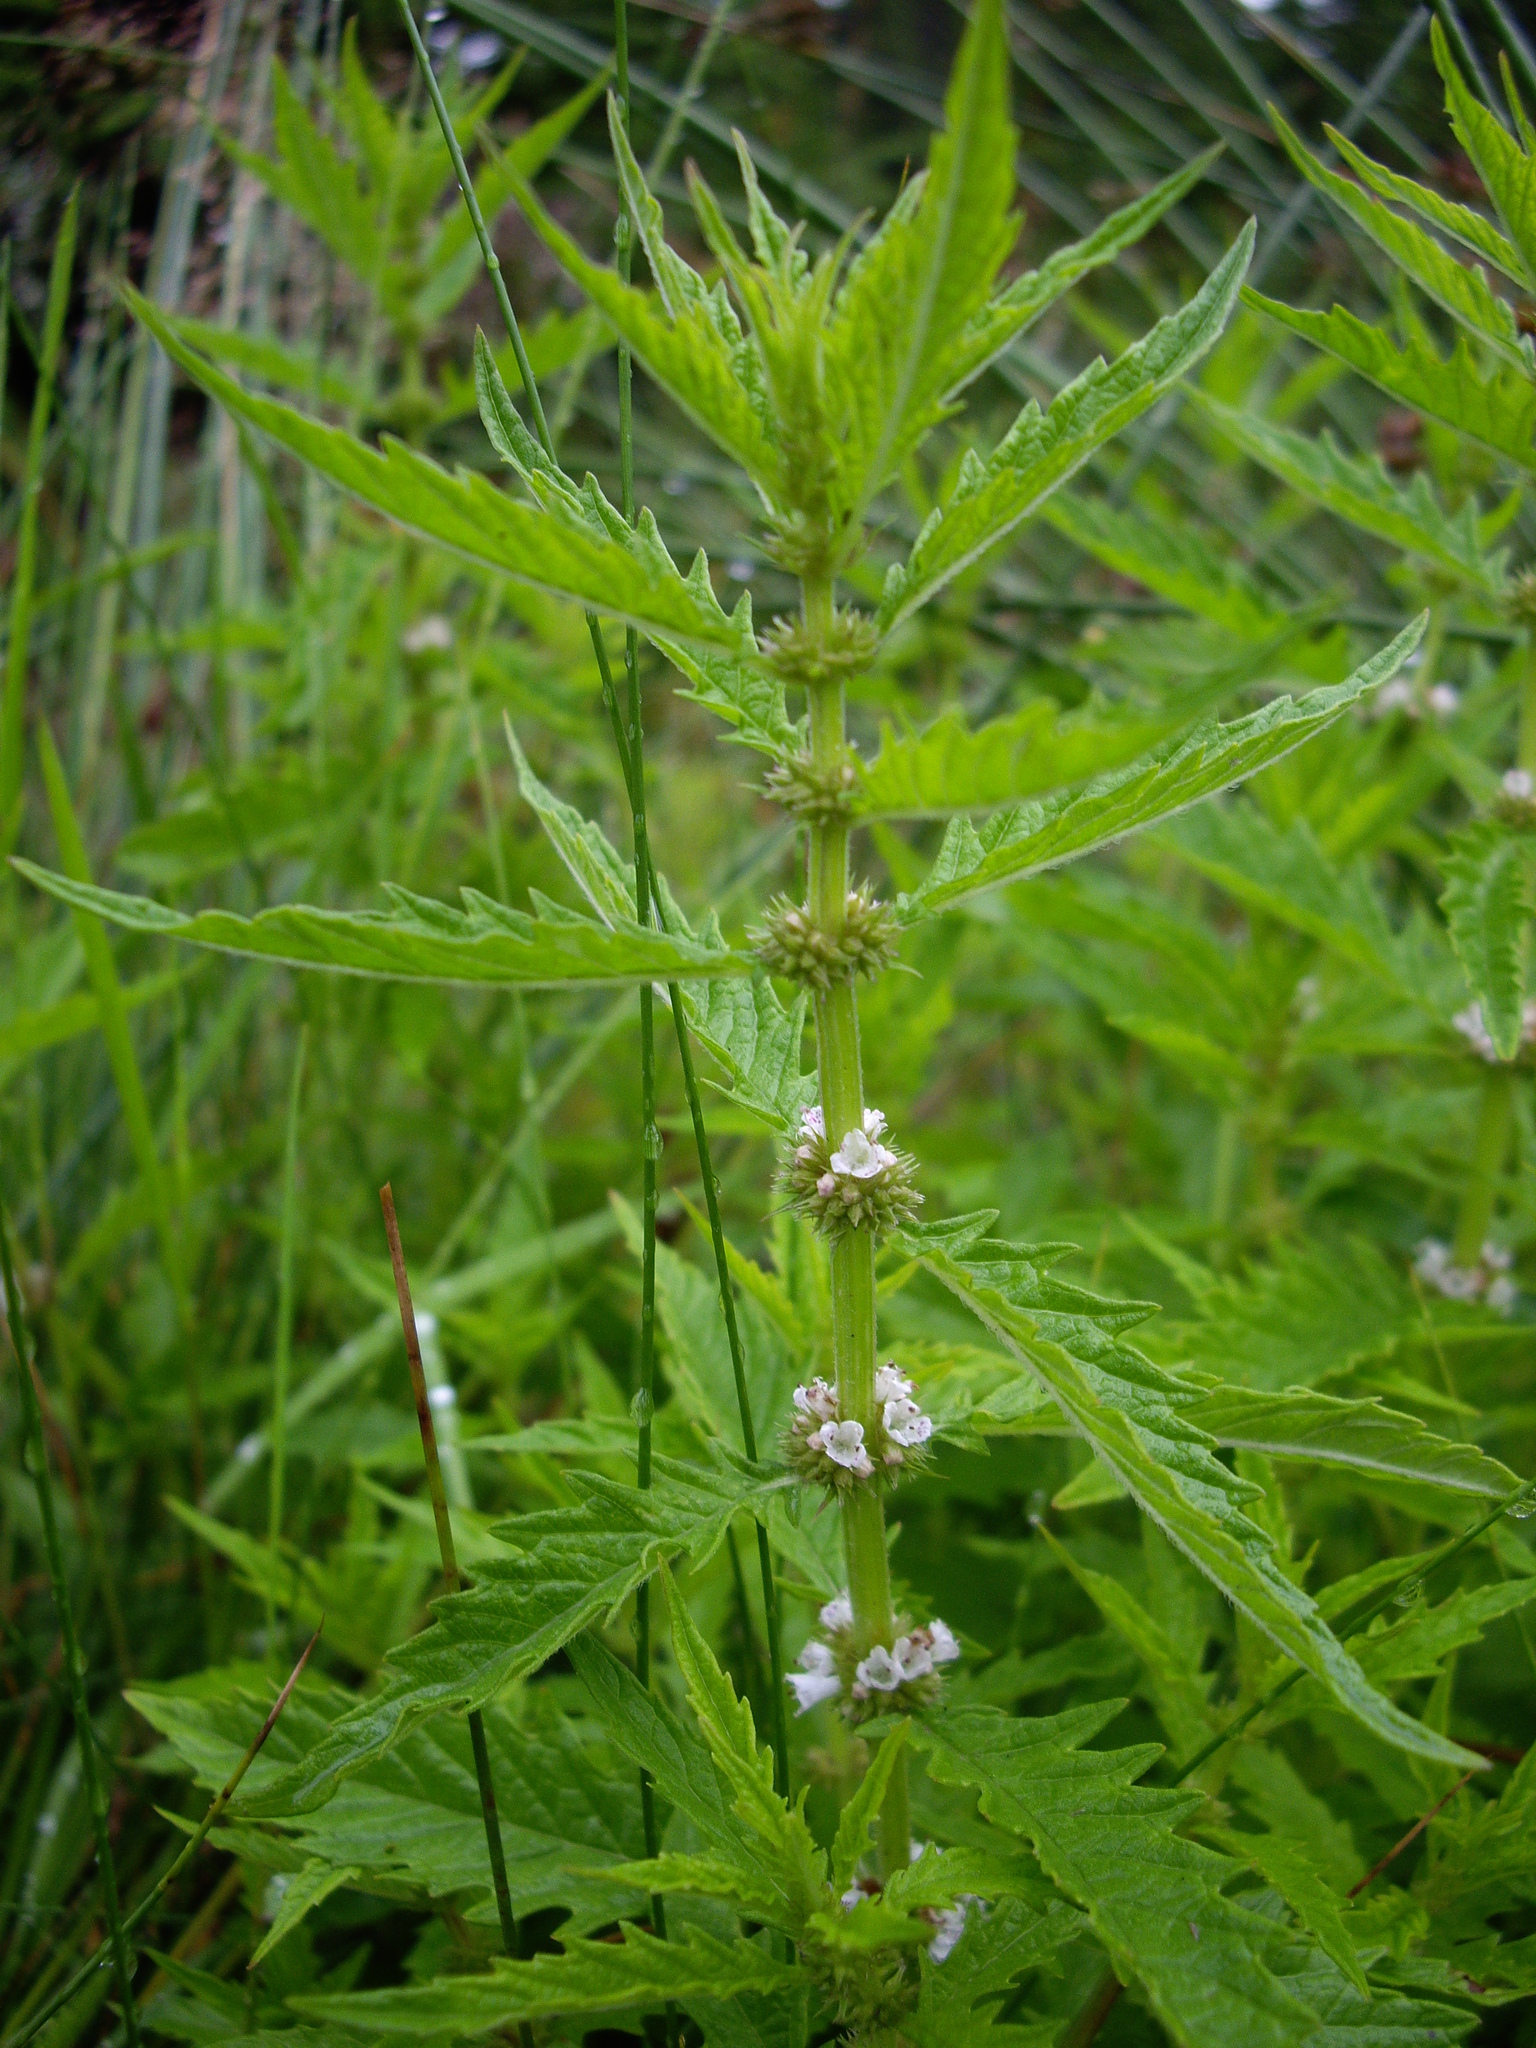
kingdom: Plantae
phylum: Tracheophyta
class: Magnoliopsida
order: Lamiales
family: Lamiaceae
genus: Lycopus
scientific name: Lycopus europaeus
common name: European bugleweed
